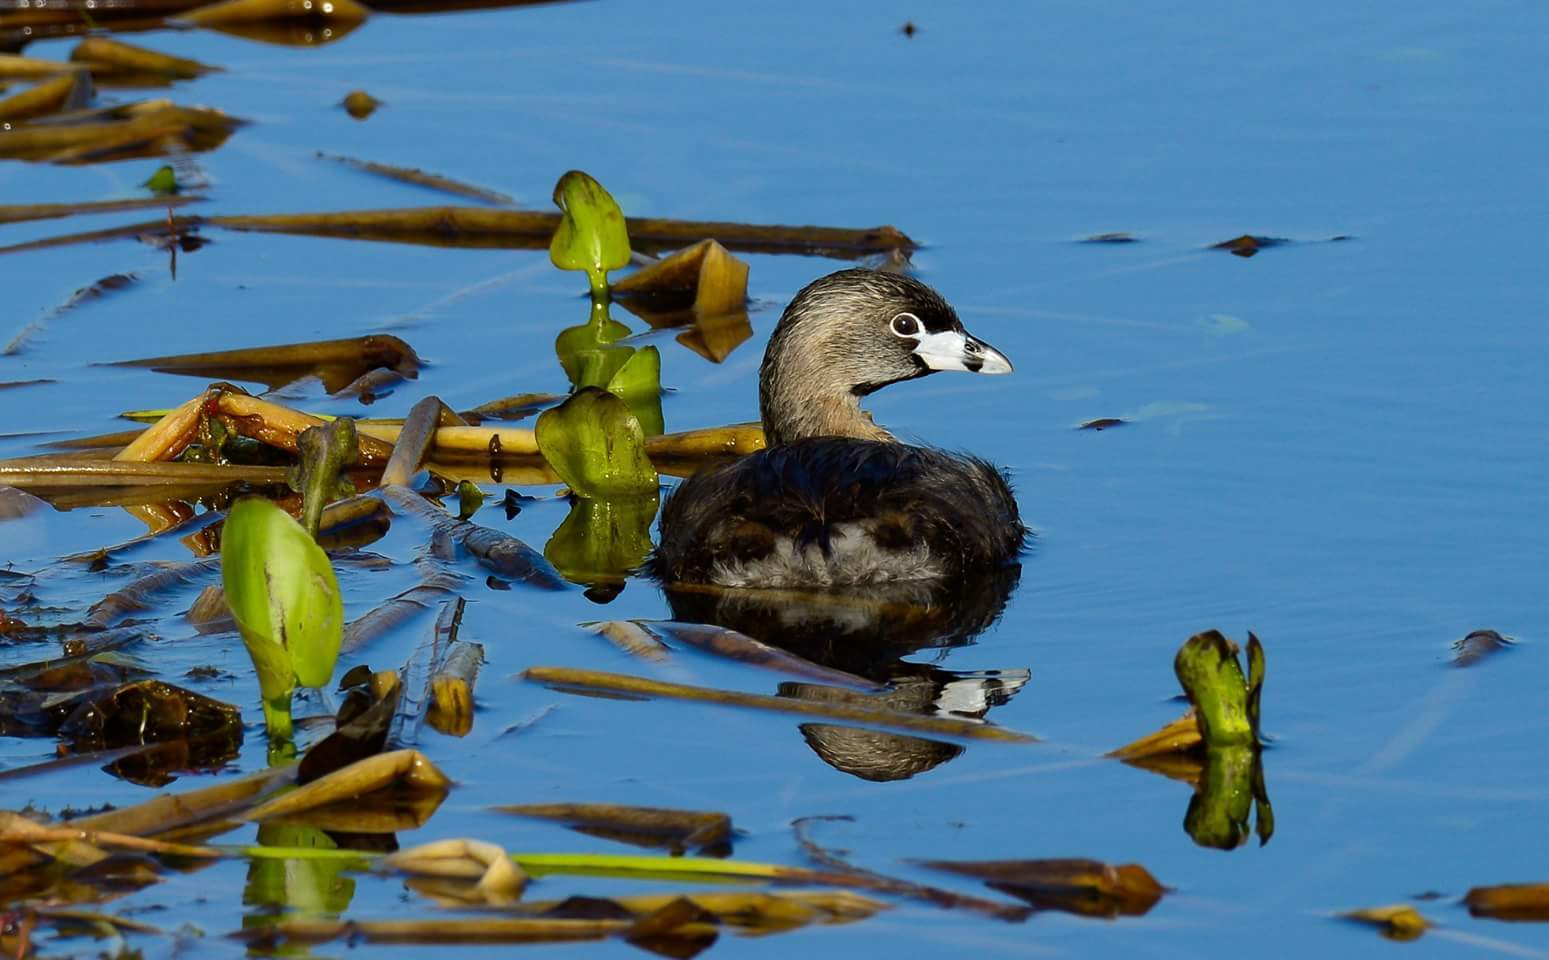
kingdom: Animalia
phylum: Chordata
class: Aves
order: Podicipediformes
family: Podicipedidae
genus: Podilymbus
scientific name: Podilymbus podiceps
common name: Pied-billed grebe
